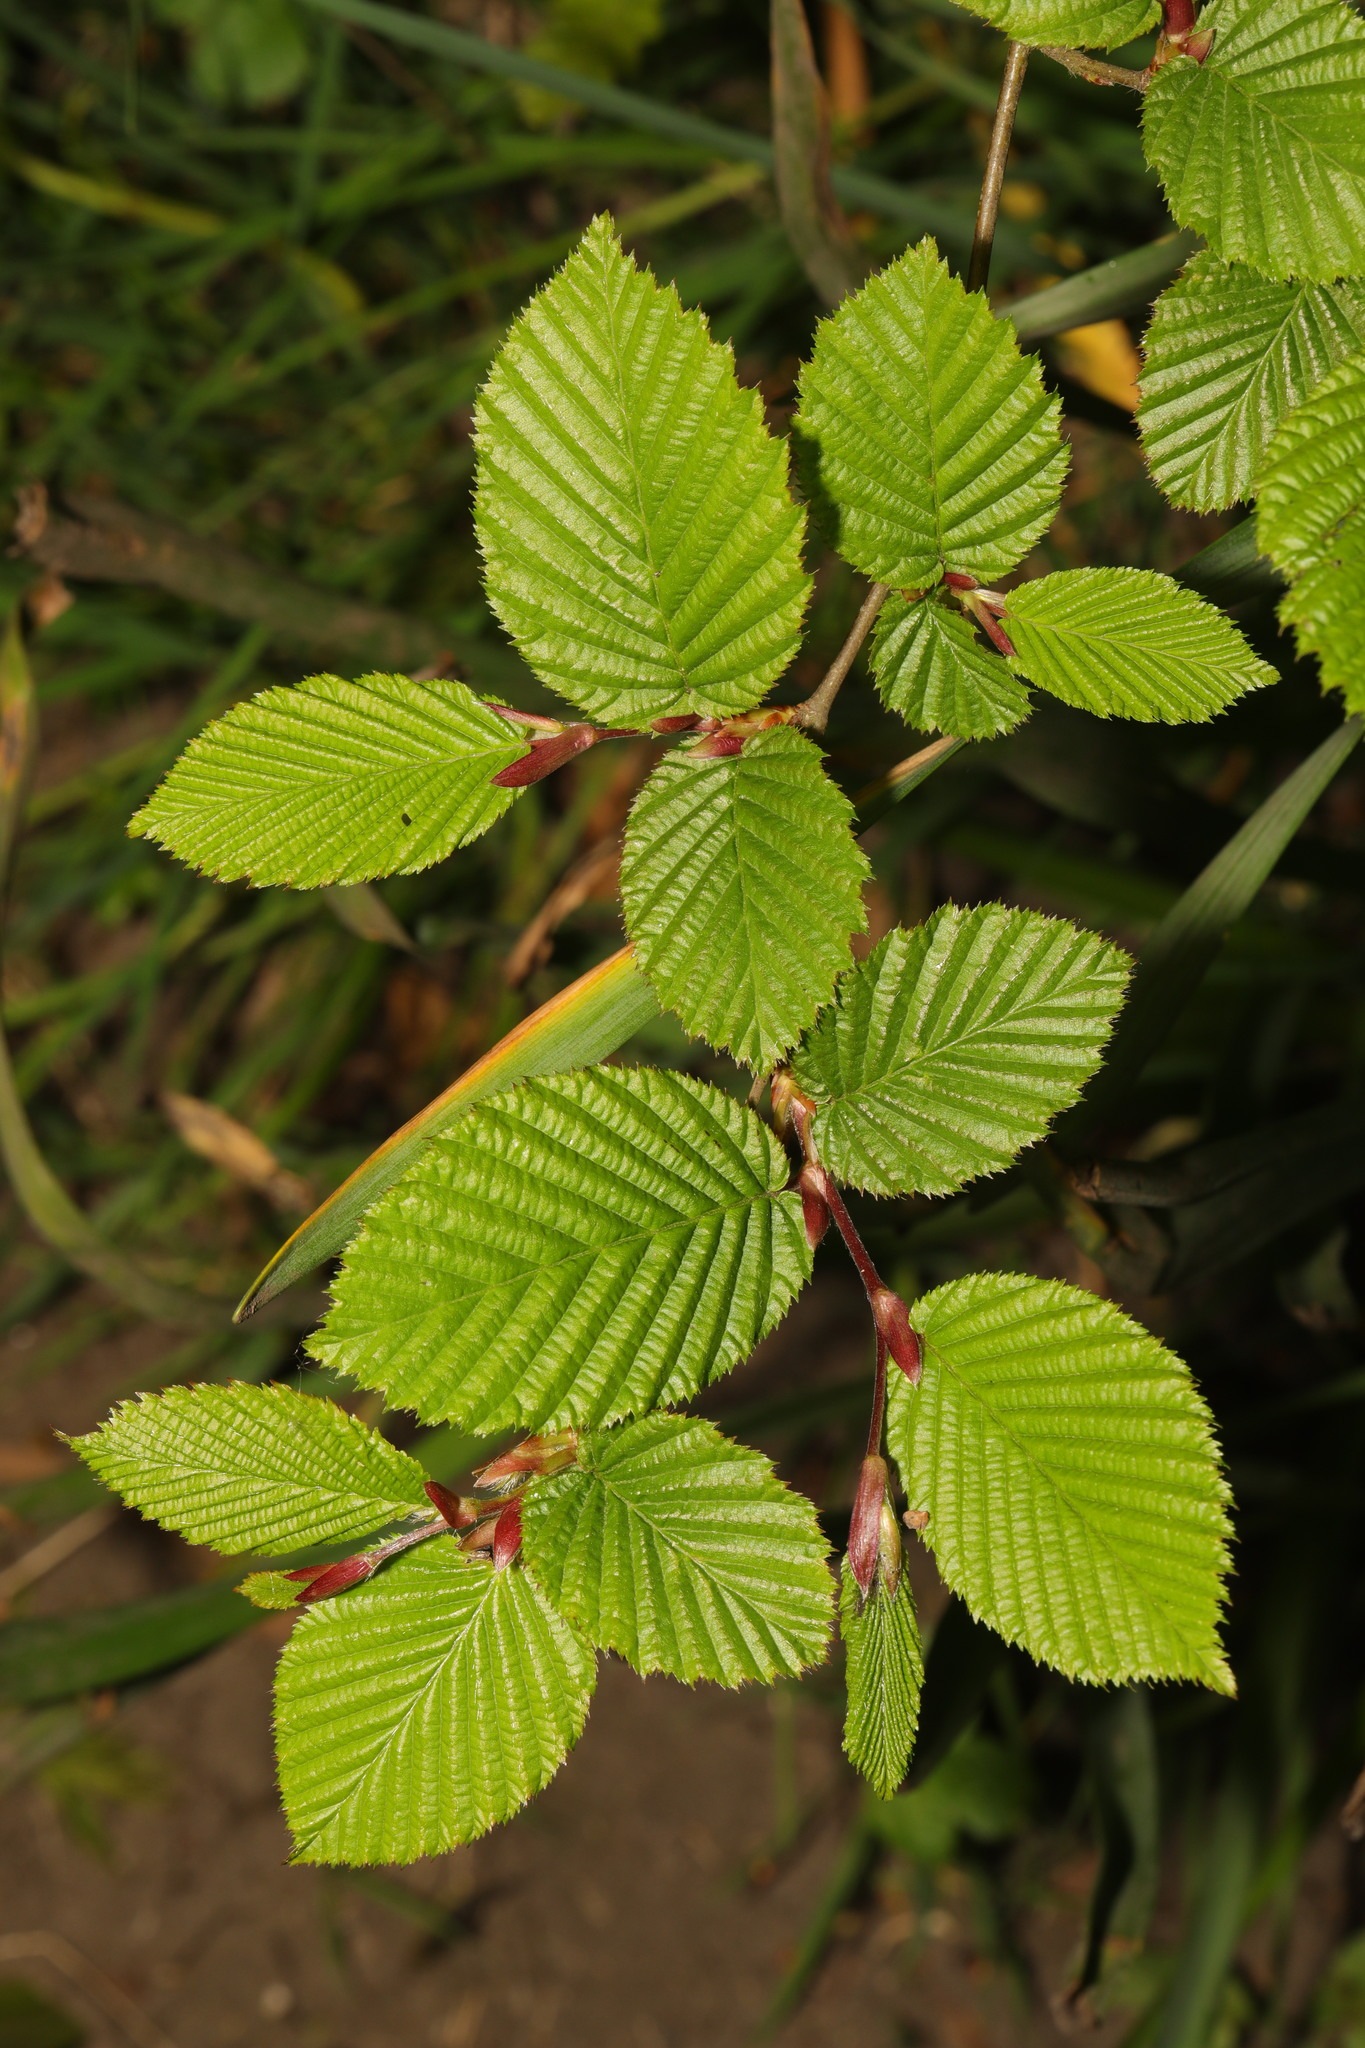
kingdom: Plantae
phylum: Tracheophyta
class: Magnoliopsida
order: Fagales
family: Betulaceae
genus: Carpinus
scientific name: Carpinus betulus
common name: Hornbeam
